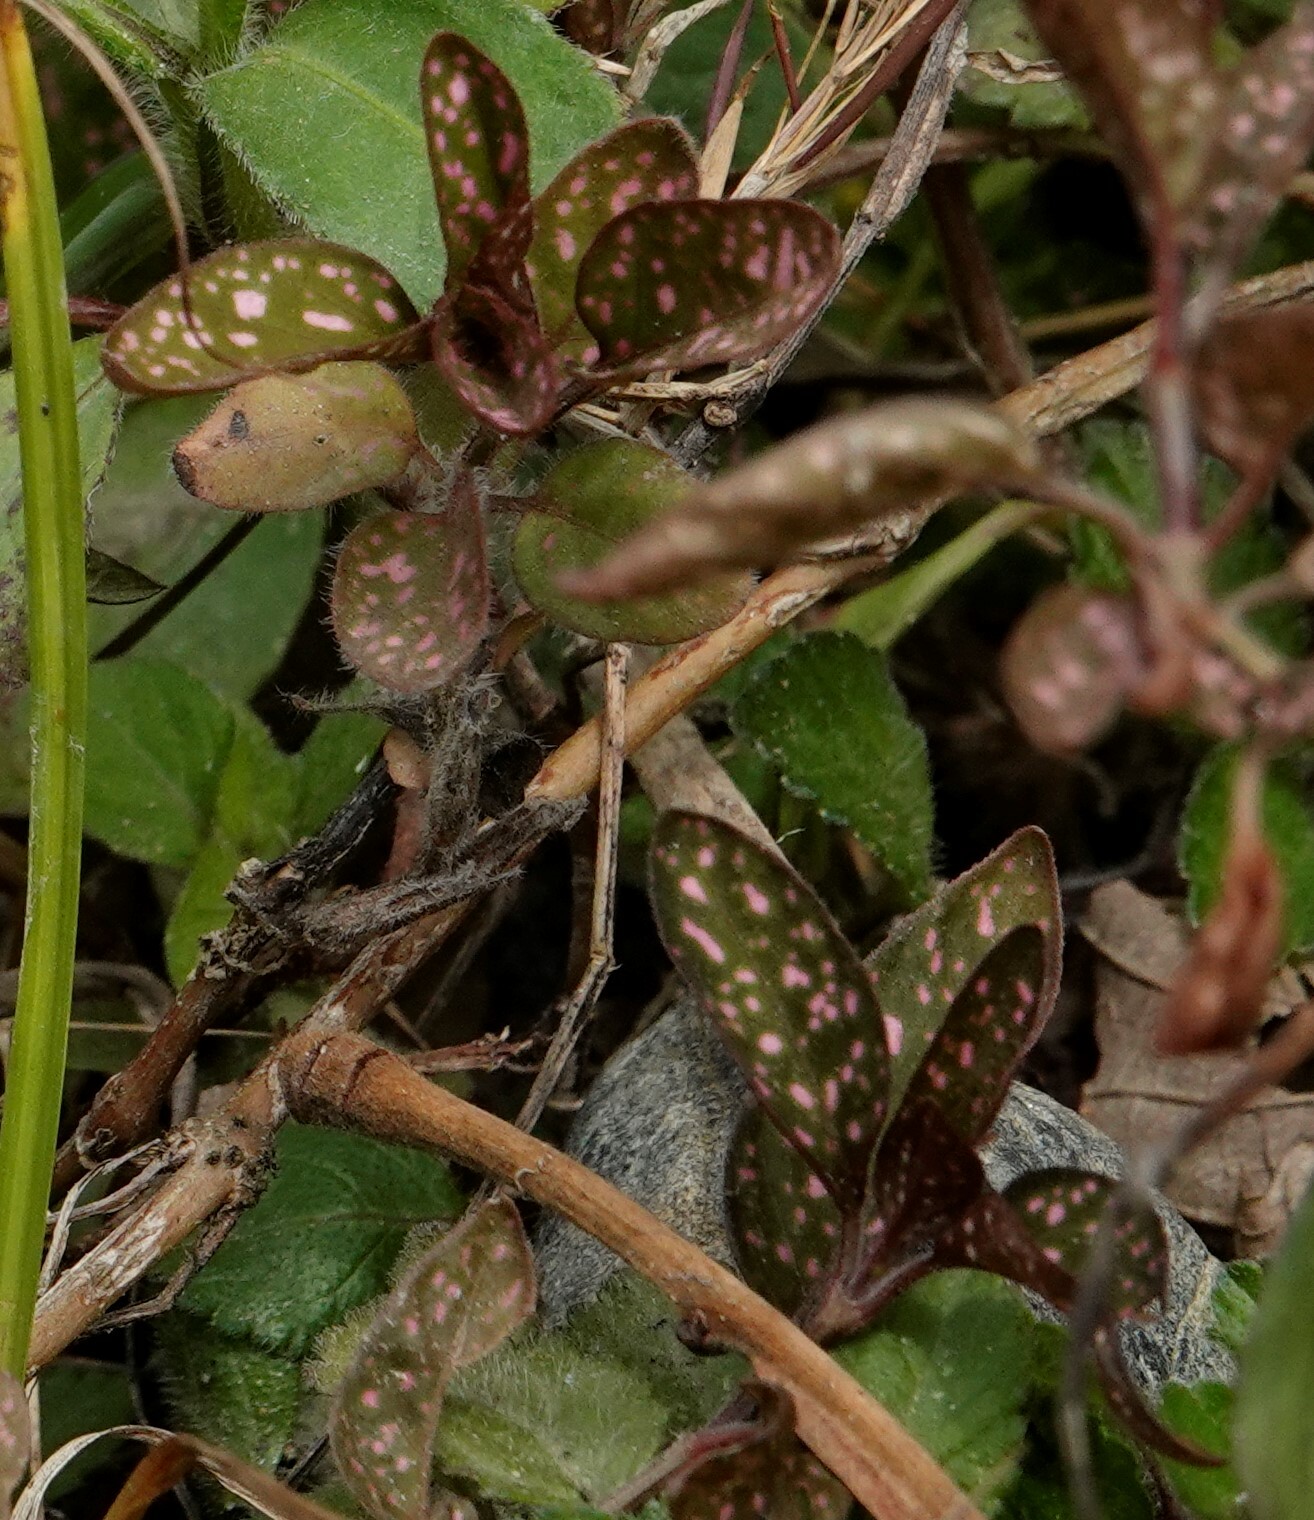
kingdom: Plantae
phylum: Tracheophyta
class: Magnoliopsida
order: Lamiales
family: Acanthaceae
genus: Hypoestes
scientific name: Hypoestes phyllostachya
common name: Polkadot-plant
